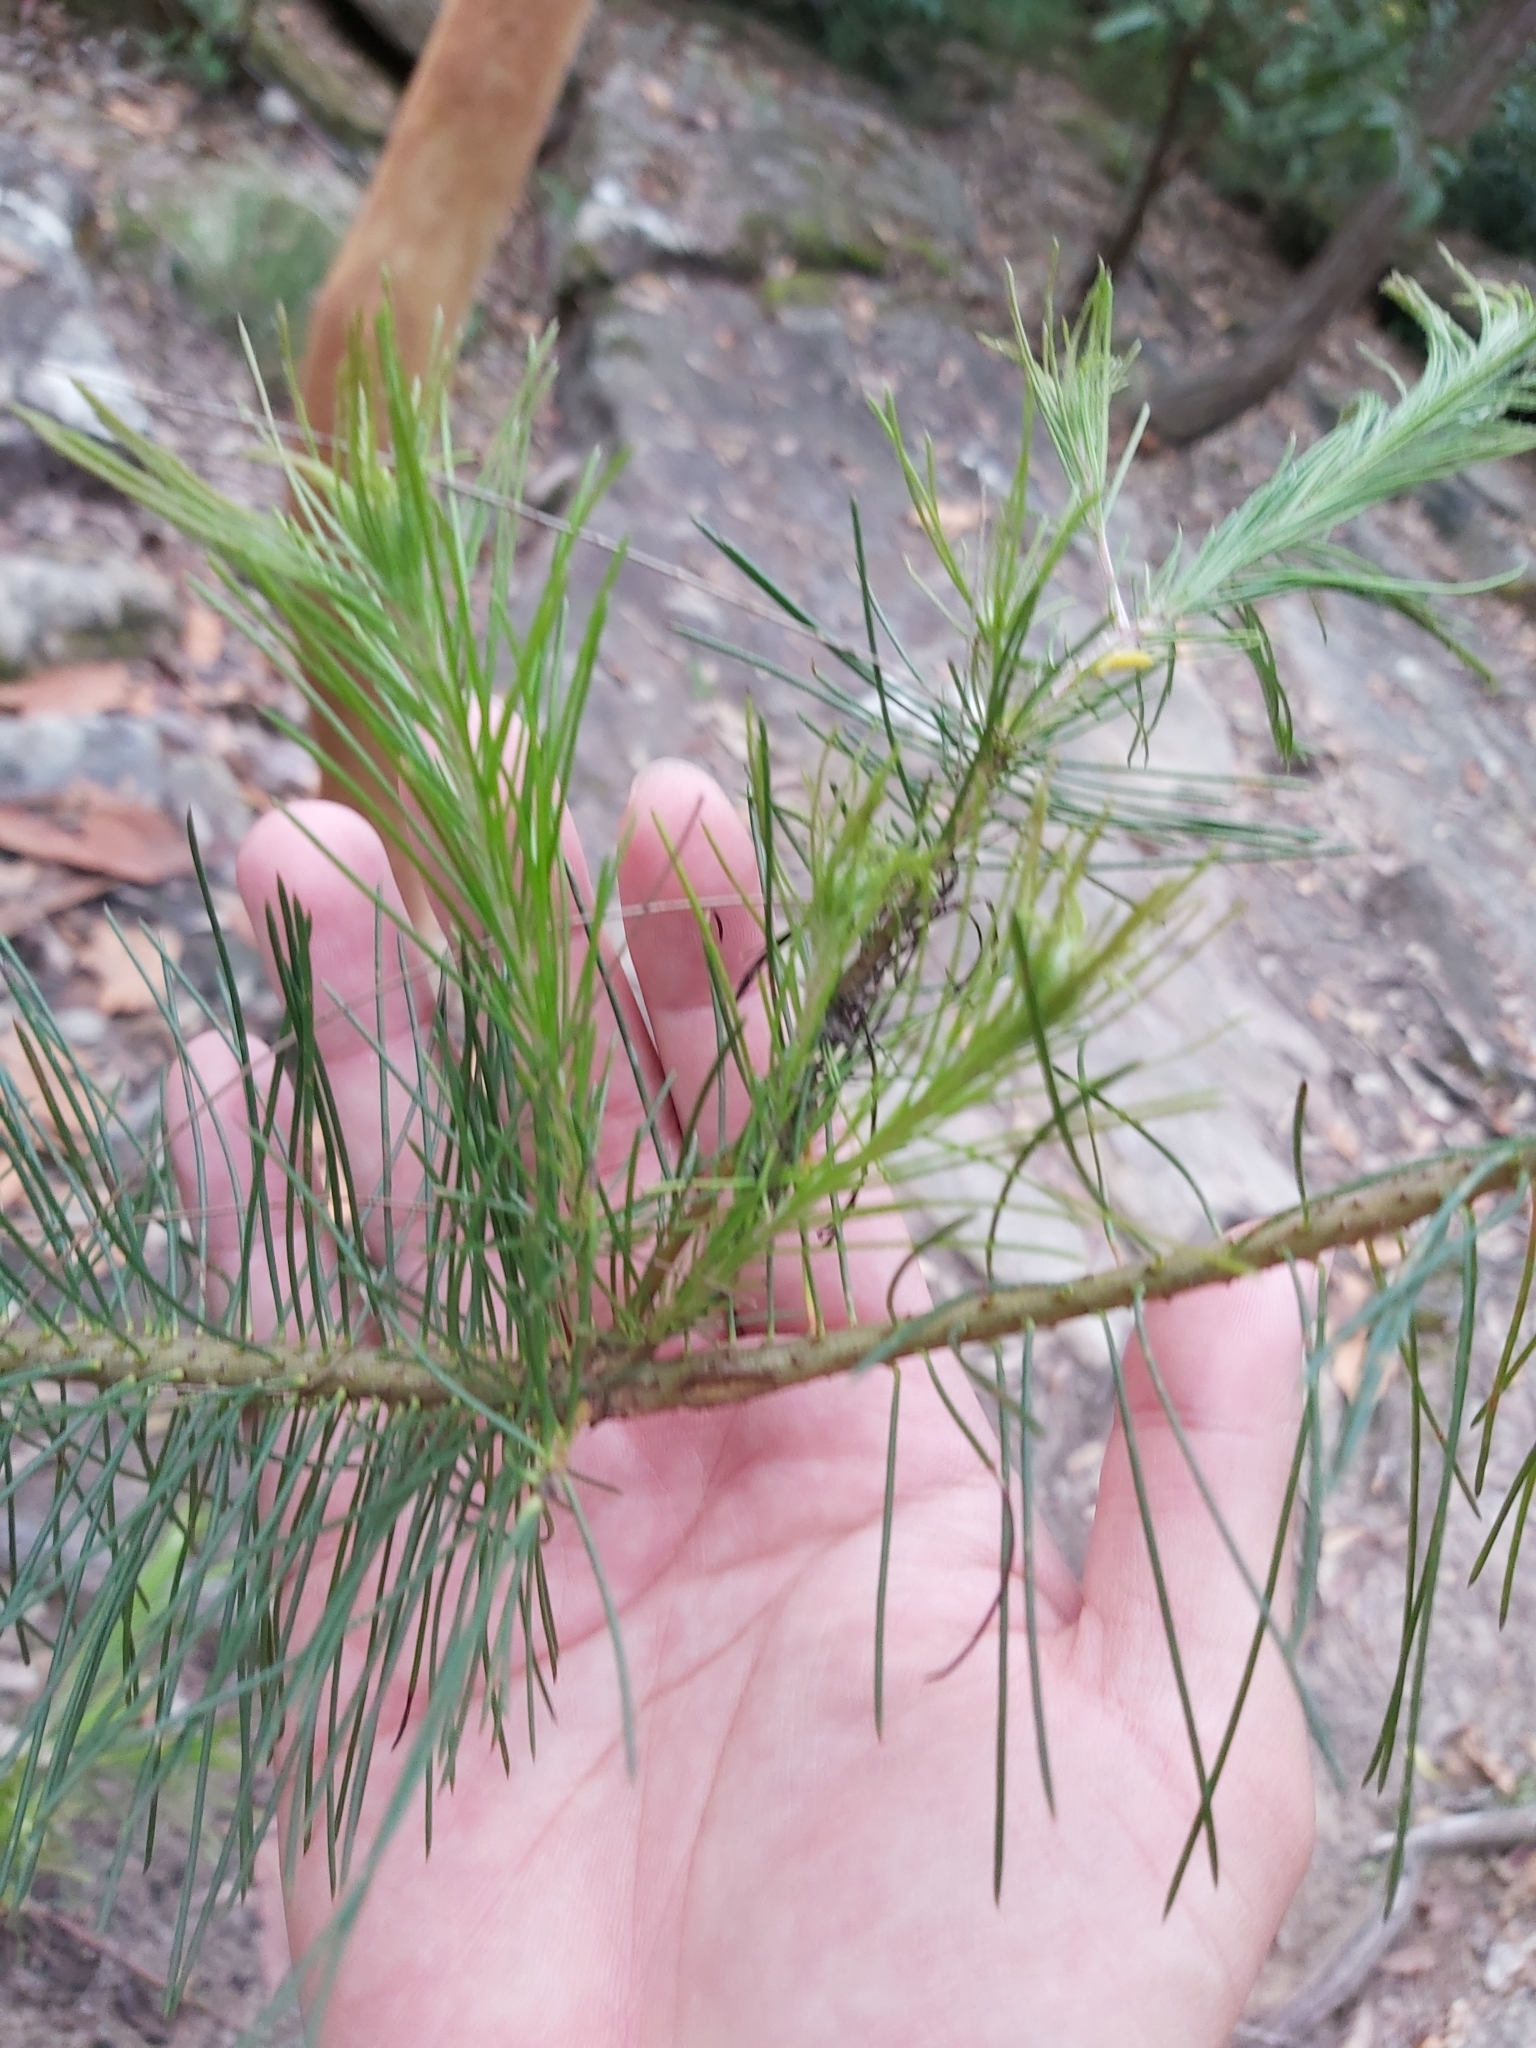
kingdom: Plantae
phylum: Tracheophyta
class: Magnoliopsida
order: Proteales
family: Proteaceae
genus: Persoonia
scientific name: Persoonia pinifolia
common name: Pine-leaf geebung
